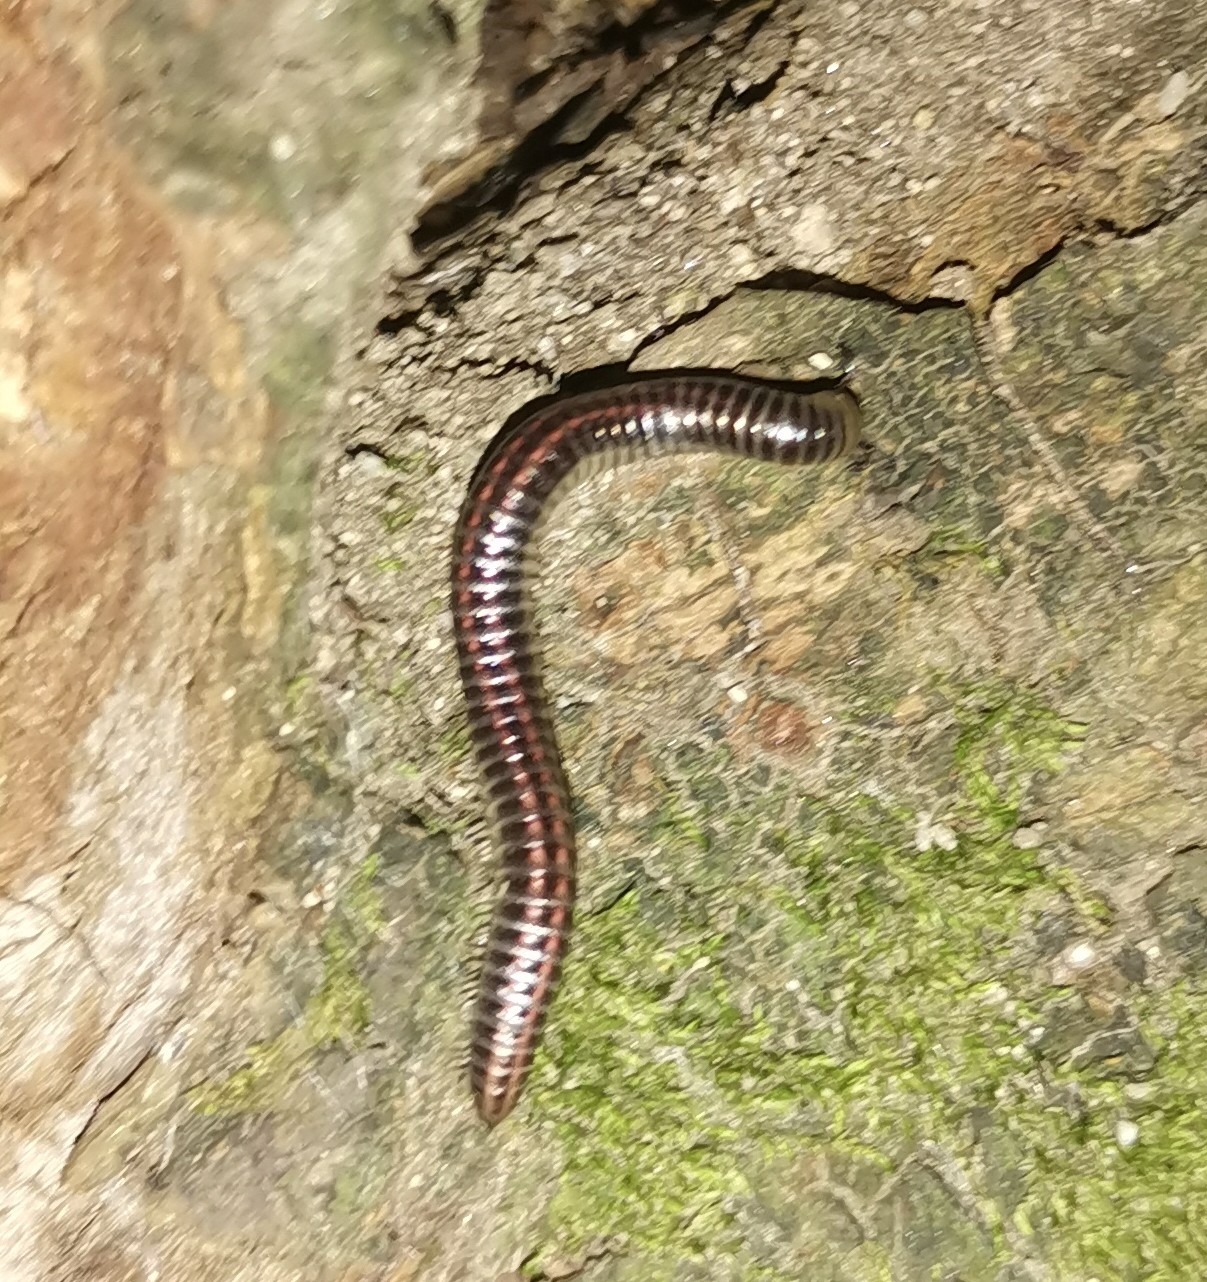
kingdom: Animalia
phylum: Arthropoda
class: Diplopoda
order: Julida
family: Julidae
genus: Ommatoiulus
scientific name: Ommatoiulus sabulosus
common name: Striped millipede
